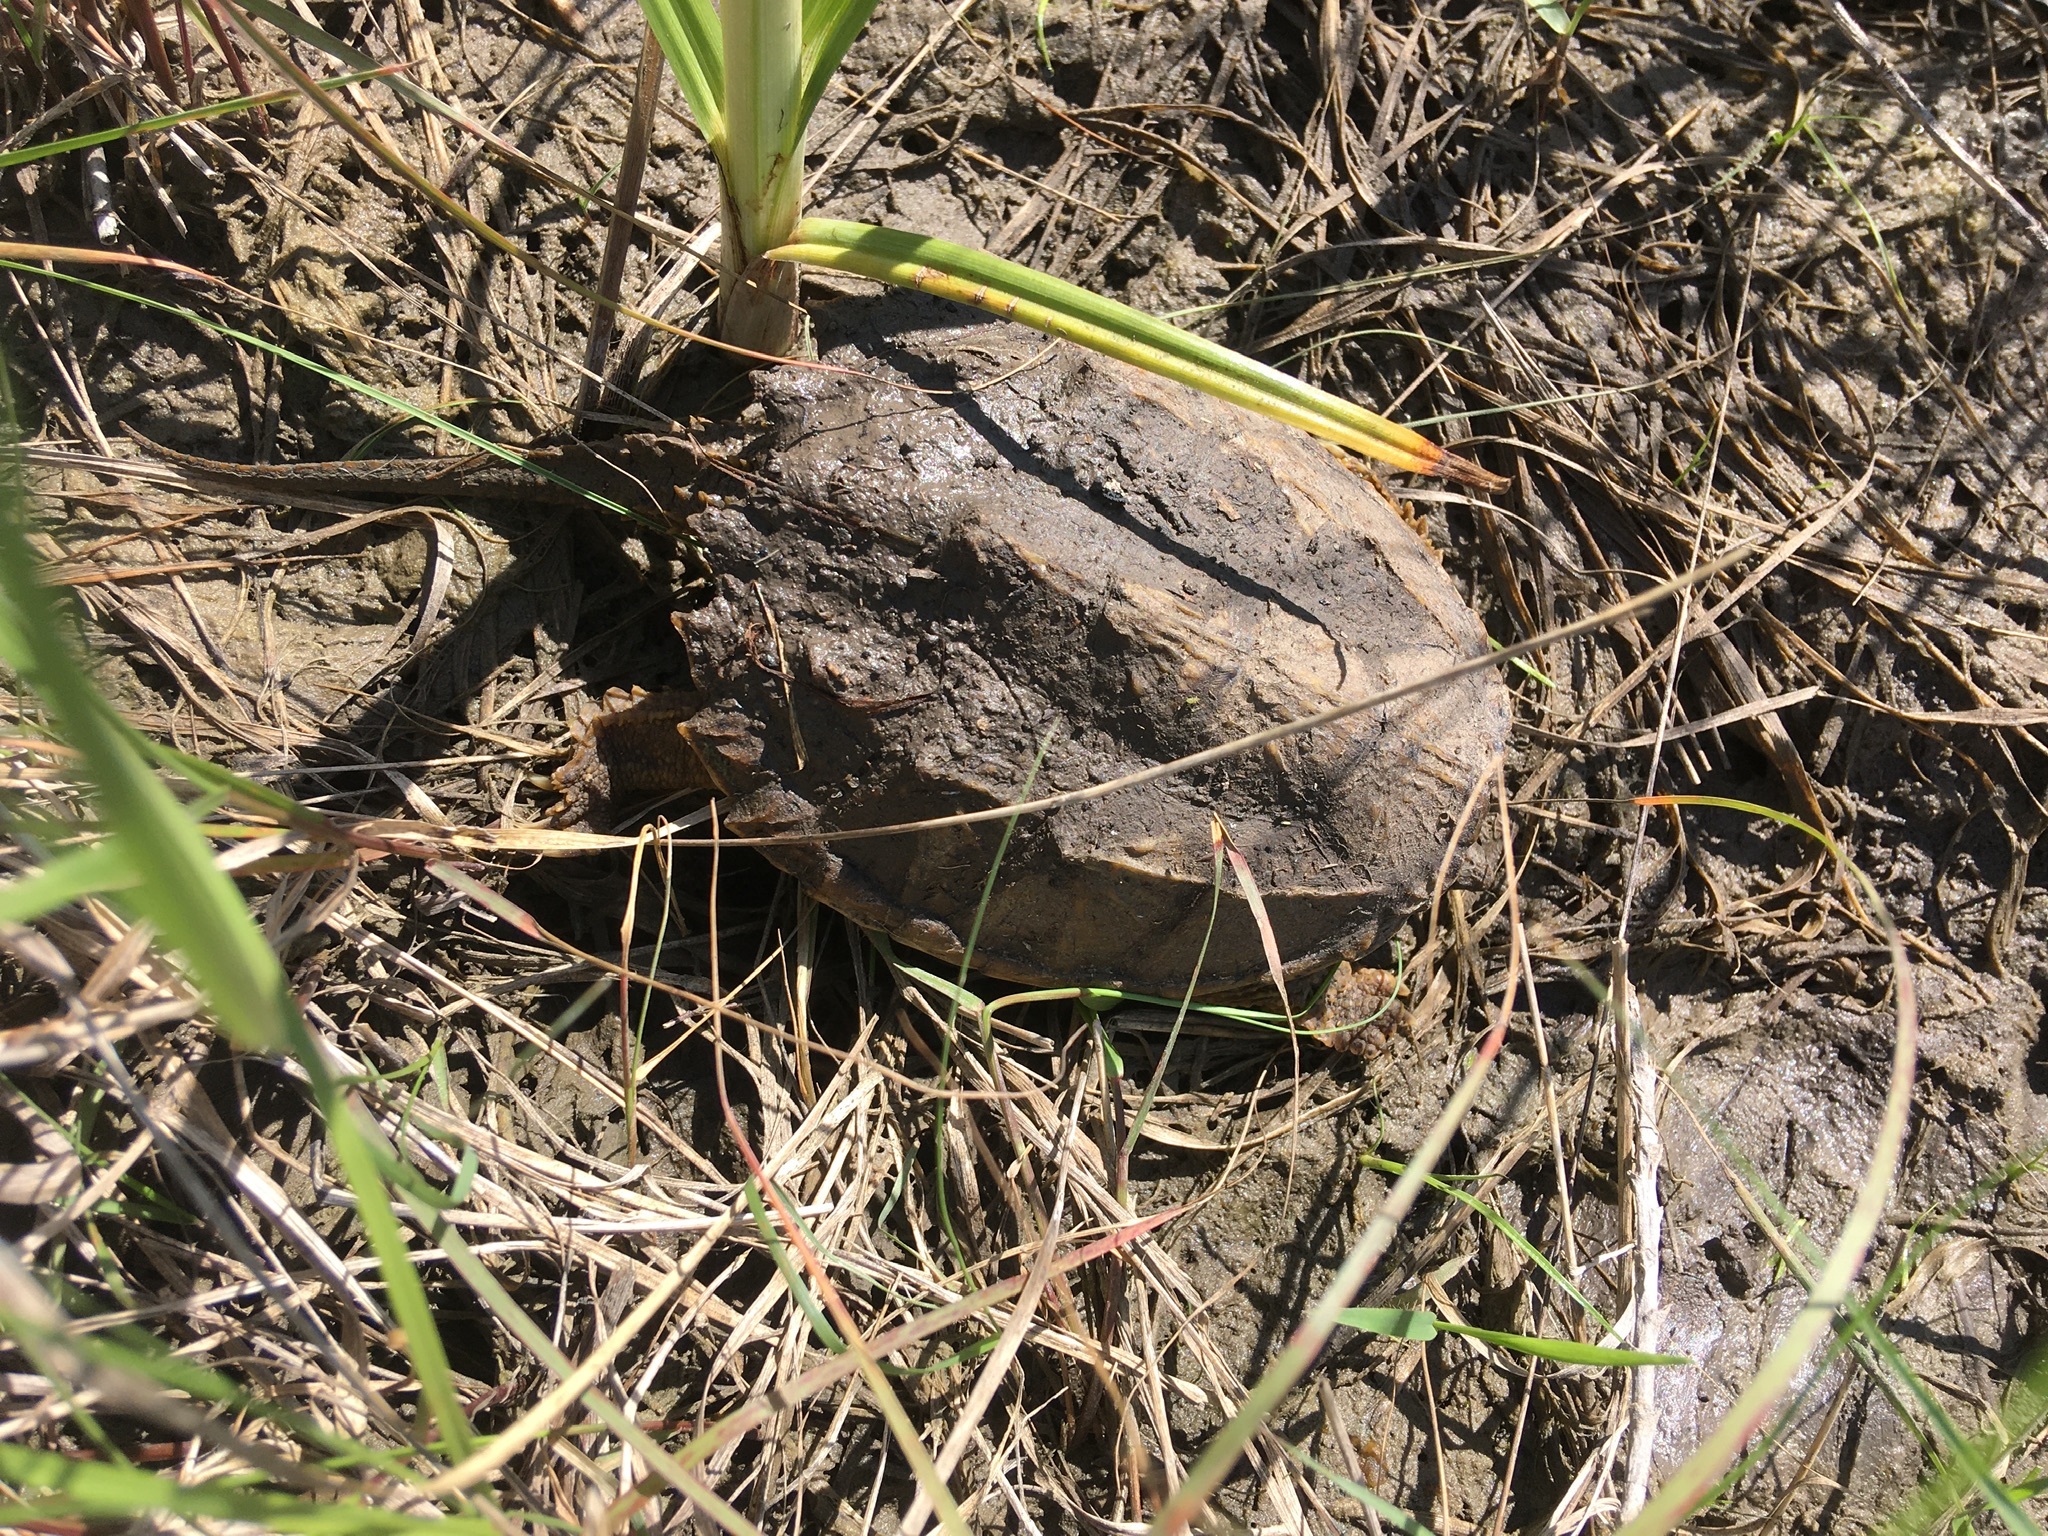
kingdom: Animalia
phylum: Chordata
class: Testudines
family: Chelydridae
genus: Chelydra
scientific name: Chelydra serpentina
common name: Common snapping turtle
